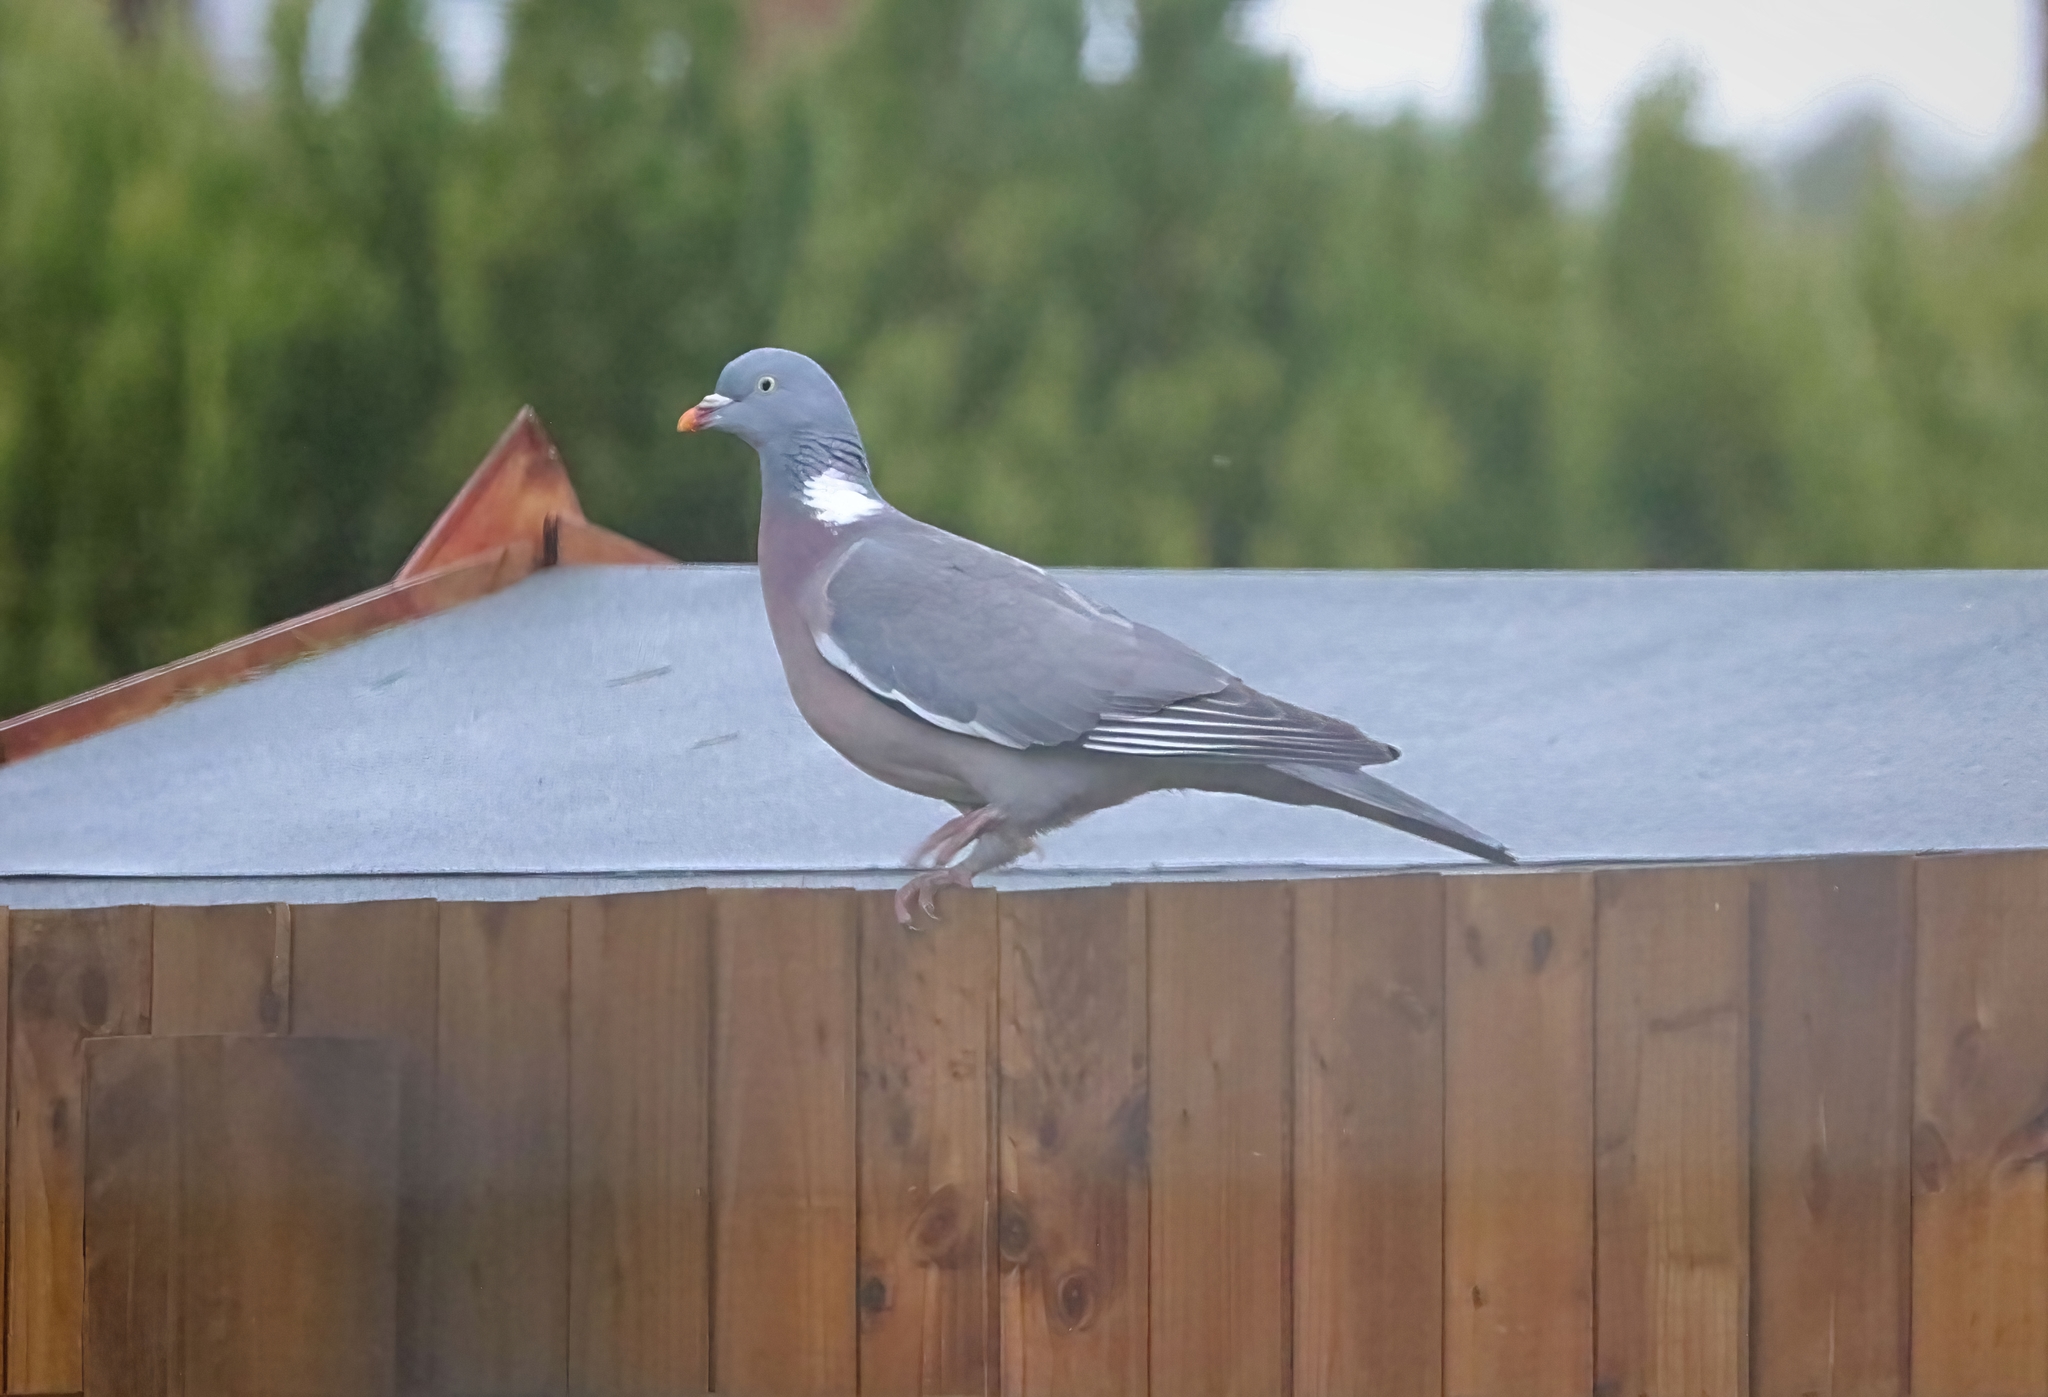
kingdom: Animalia
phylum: Chordata
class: Aves
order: Columbiformes
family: Columbidae
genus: Columba
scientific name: Columba palumbus
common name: Common wood pigeon
